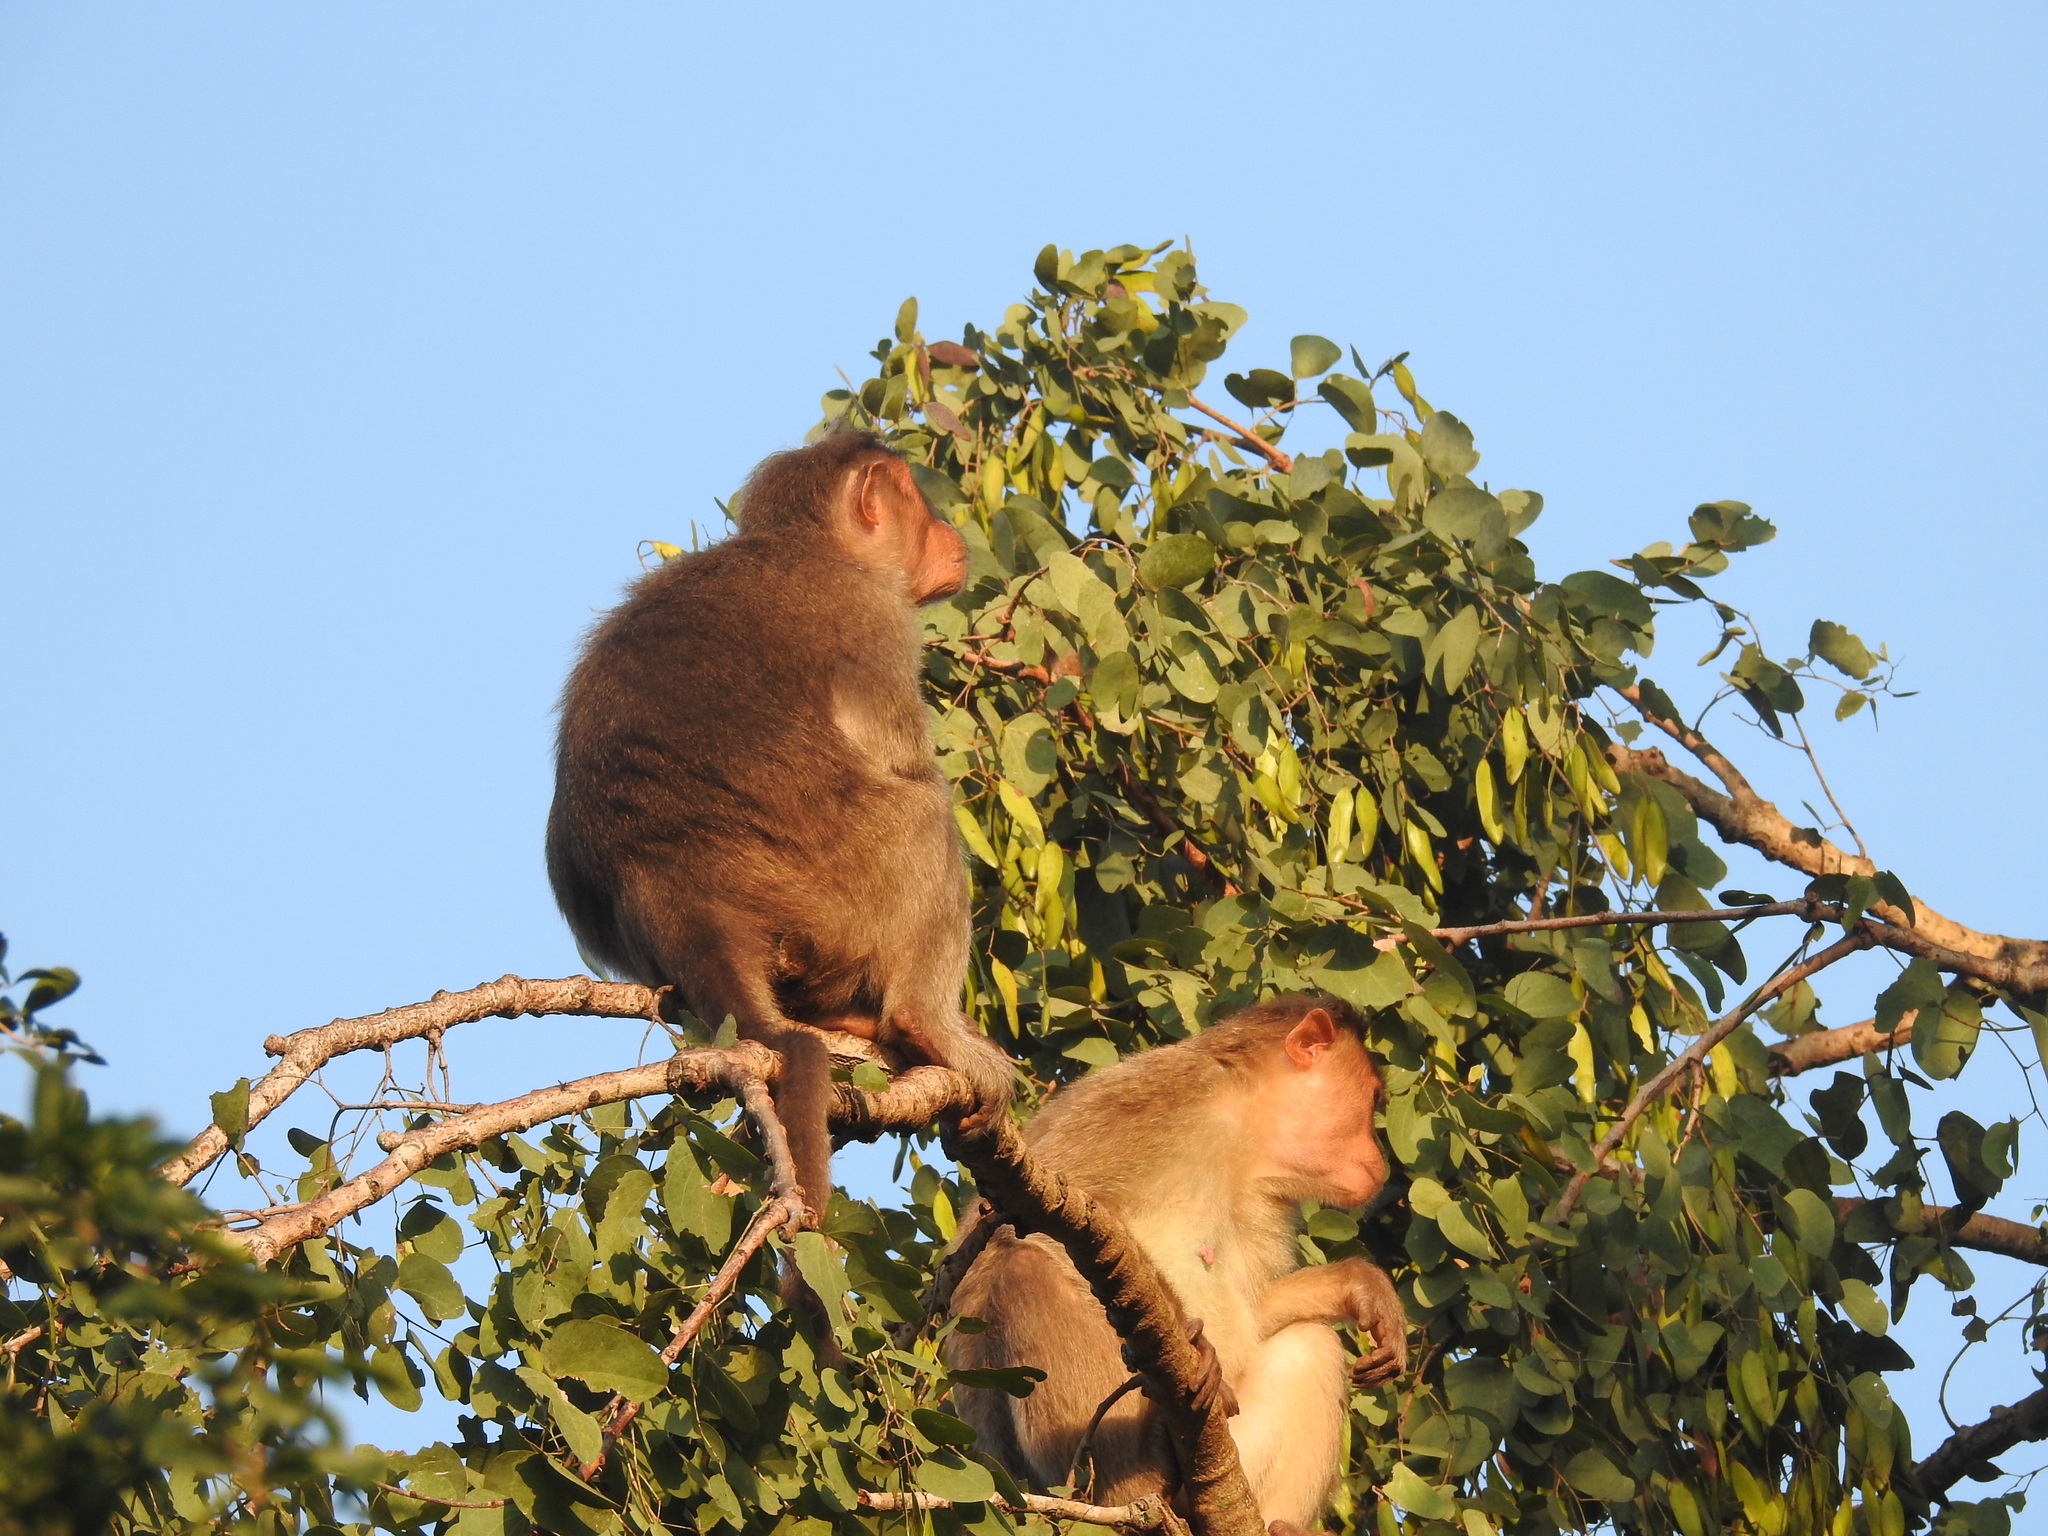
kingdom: Animalia
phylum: Chordata
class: Mammalia
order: Primates
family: Cercopithecidae
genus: Macaca
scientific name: Macaca radiata
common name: Bonnet macaque
